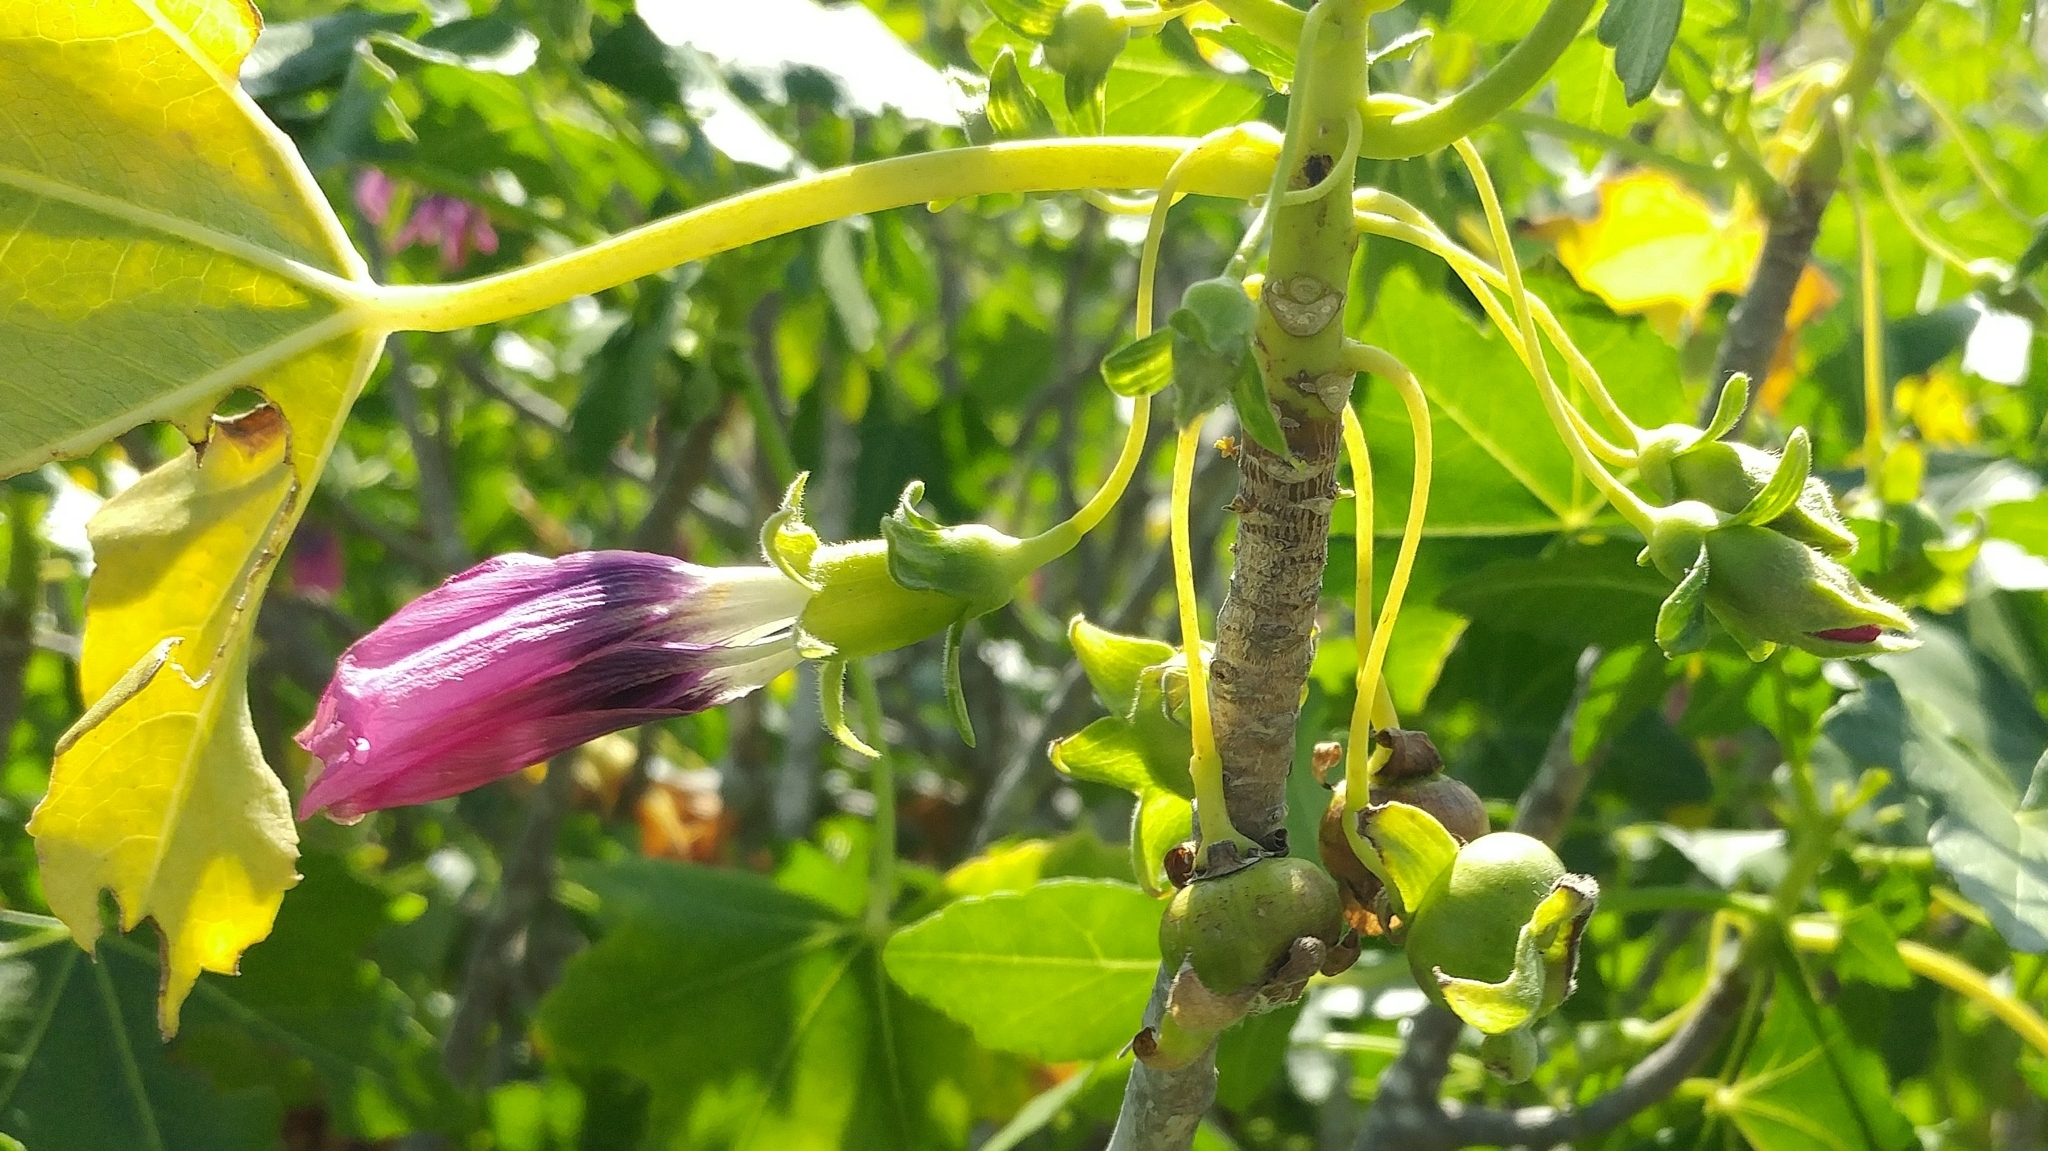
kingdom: Plantae
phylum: Tracheophyta
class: Magnoliopsida
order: Malvales
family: Malvaceae
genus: Malva
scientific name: Malva assurgentiflora
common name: Island mallow
